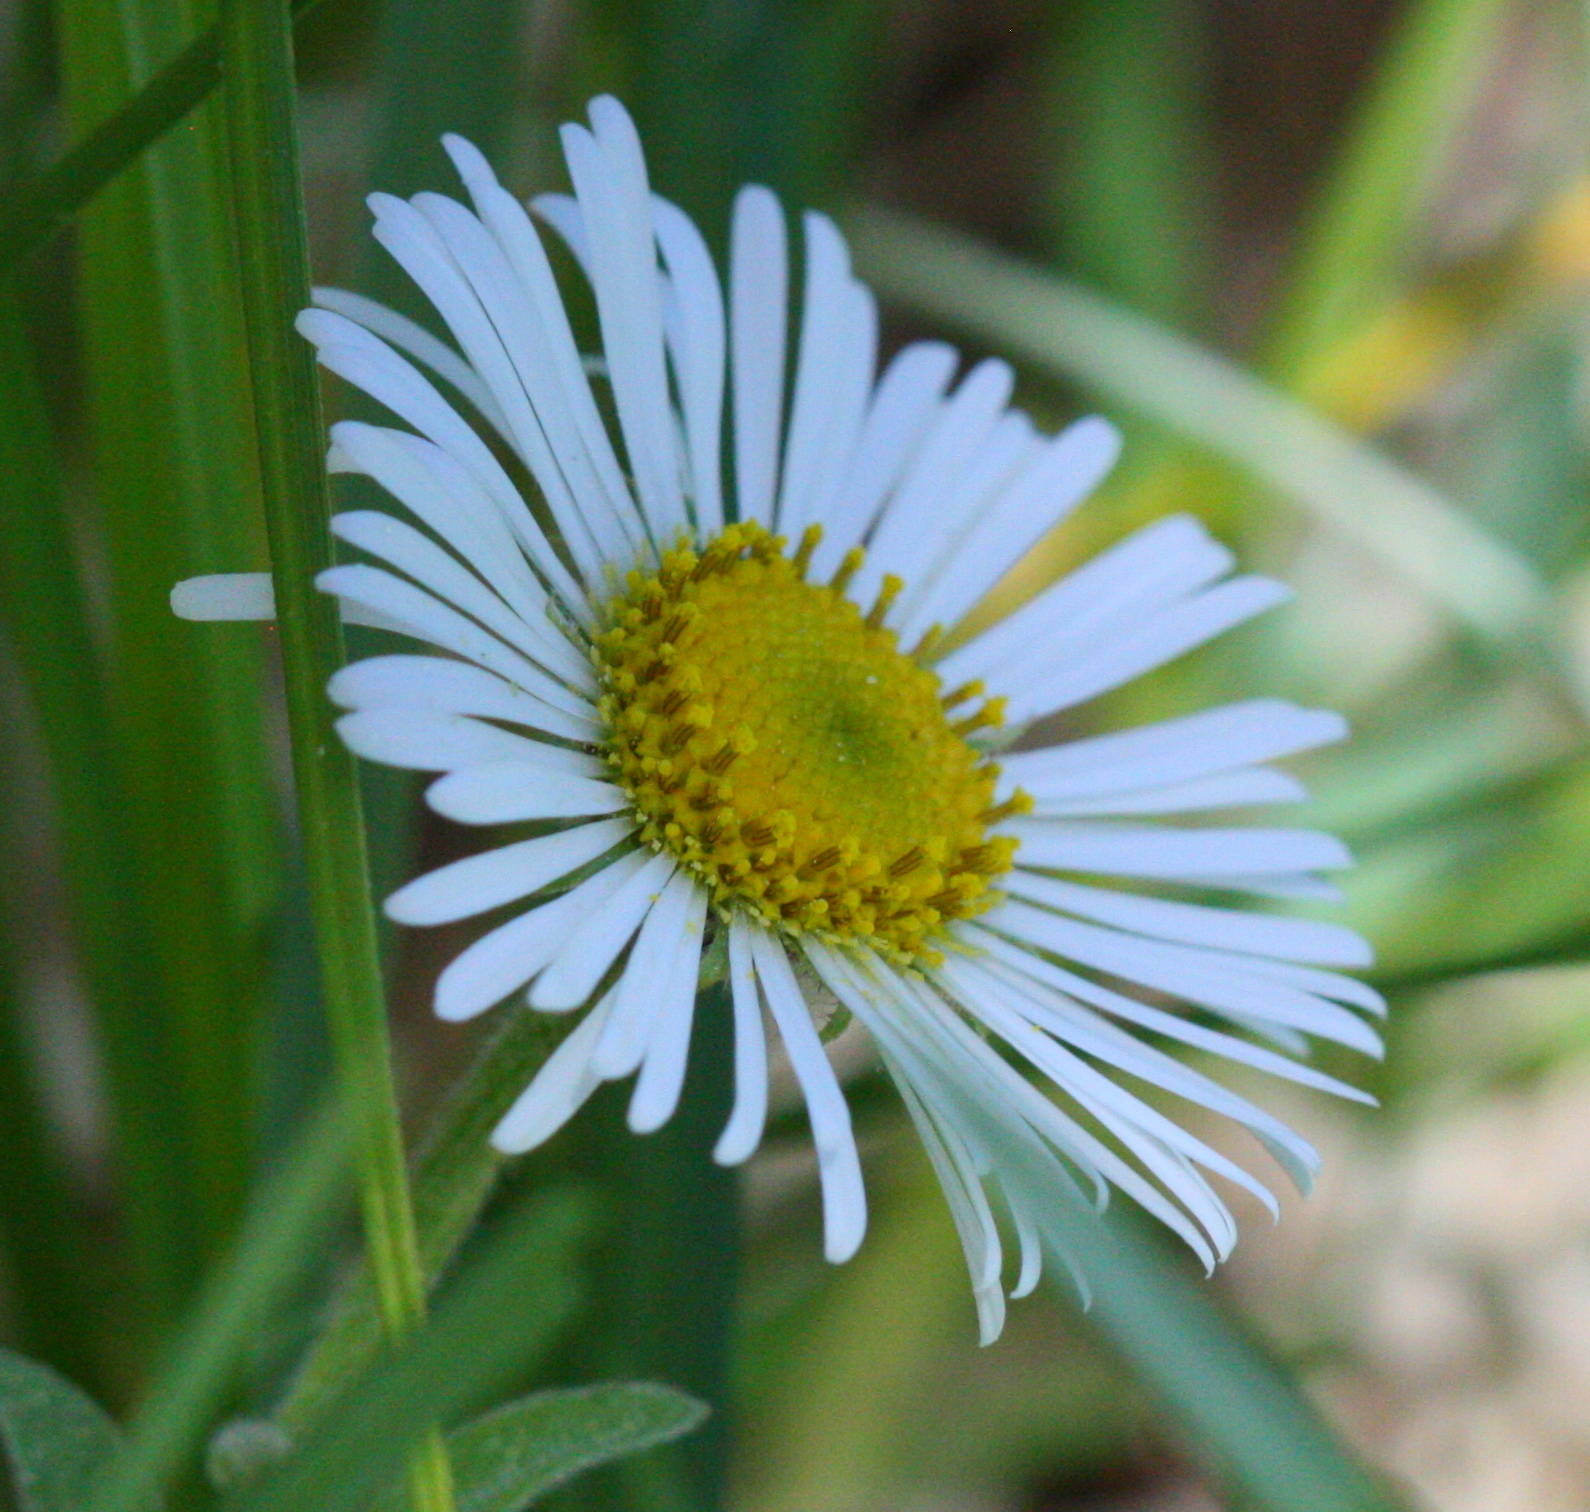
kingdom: Plantae
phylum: Tracheophyta
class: Magnoliopsida
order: Asterales
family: Asteraceae
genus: Erigeron
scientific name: Erigeron coulteri
